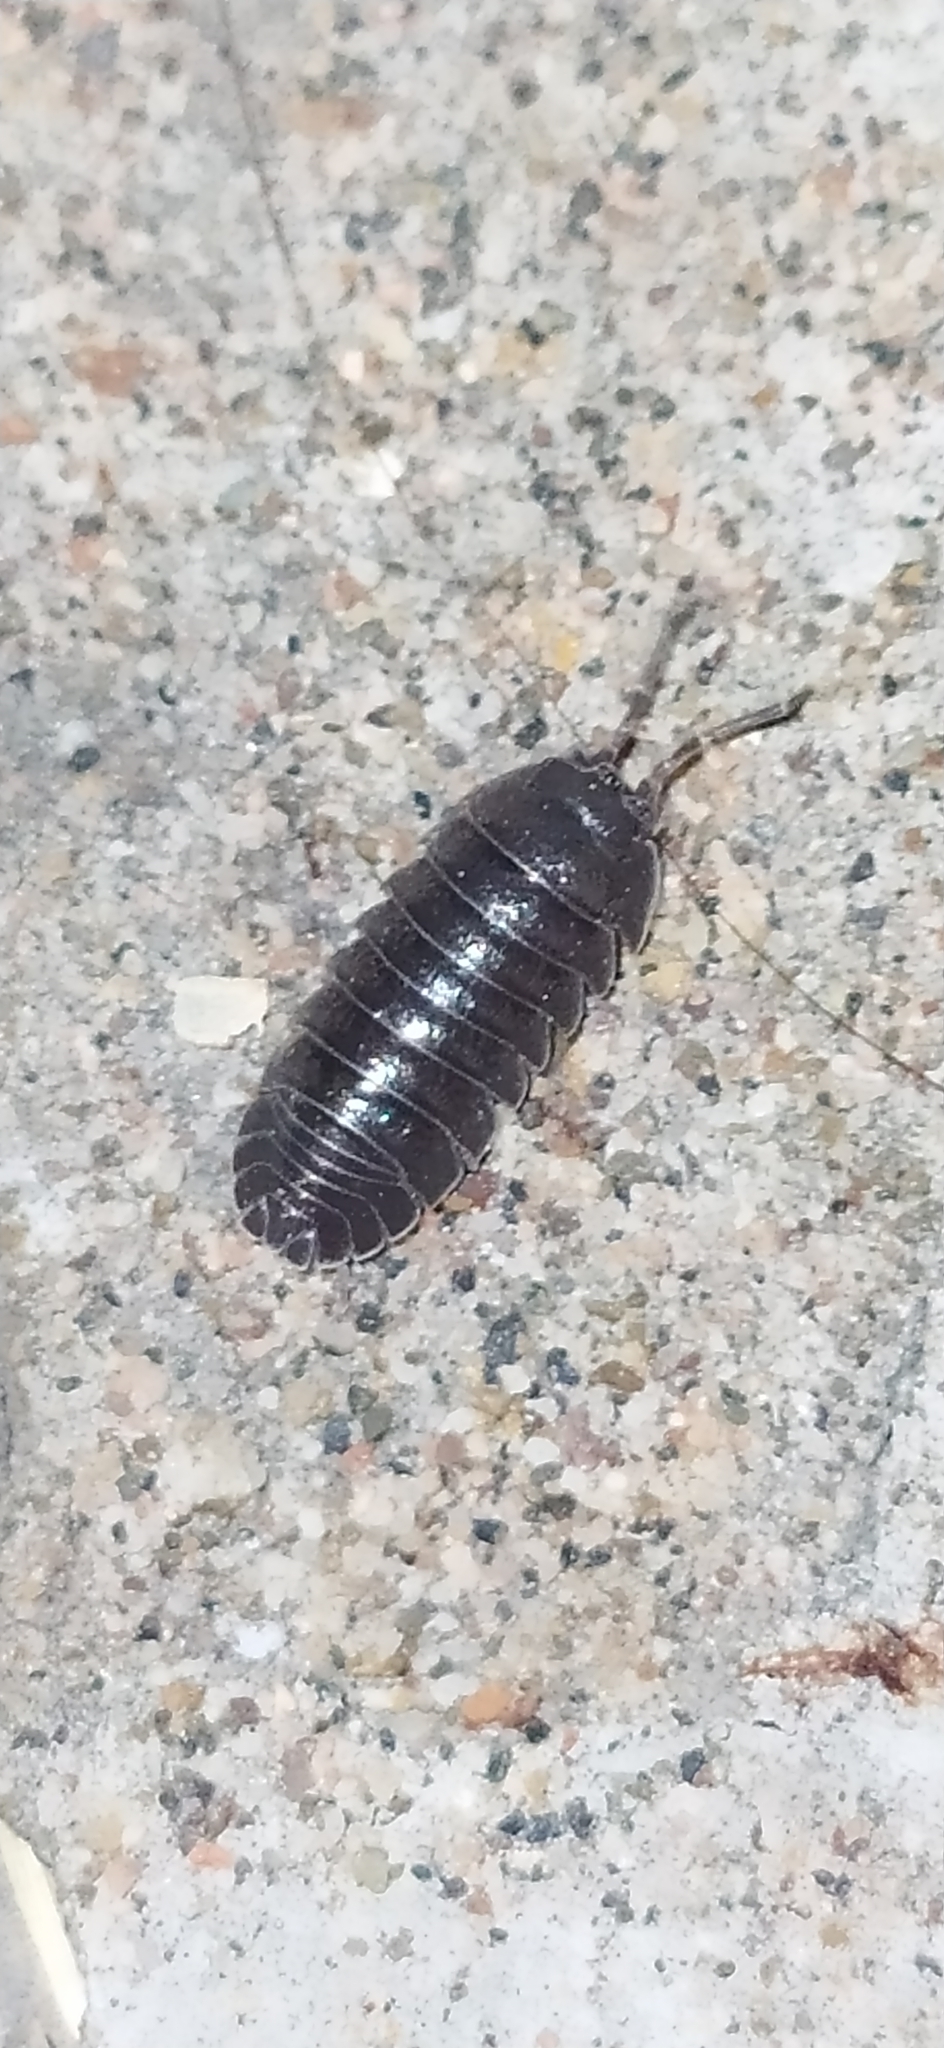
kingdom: Animalia
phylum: Arthropoda
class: Malacostraca
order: Isopoda
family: Armadillidiidae
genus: Armadillidium
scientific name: Armadillidium nasatum
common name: Isopod
